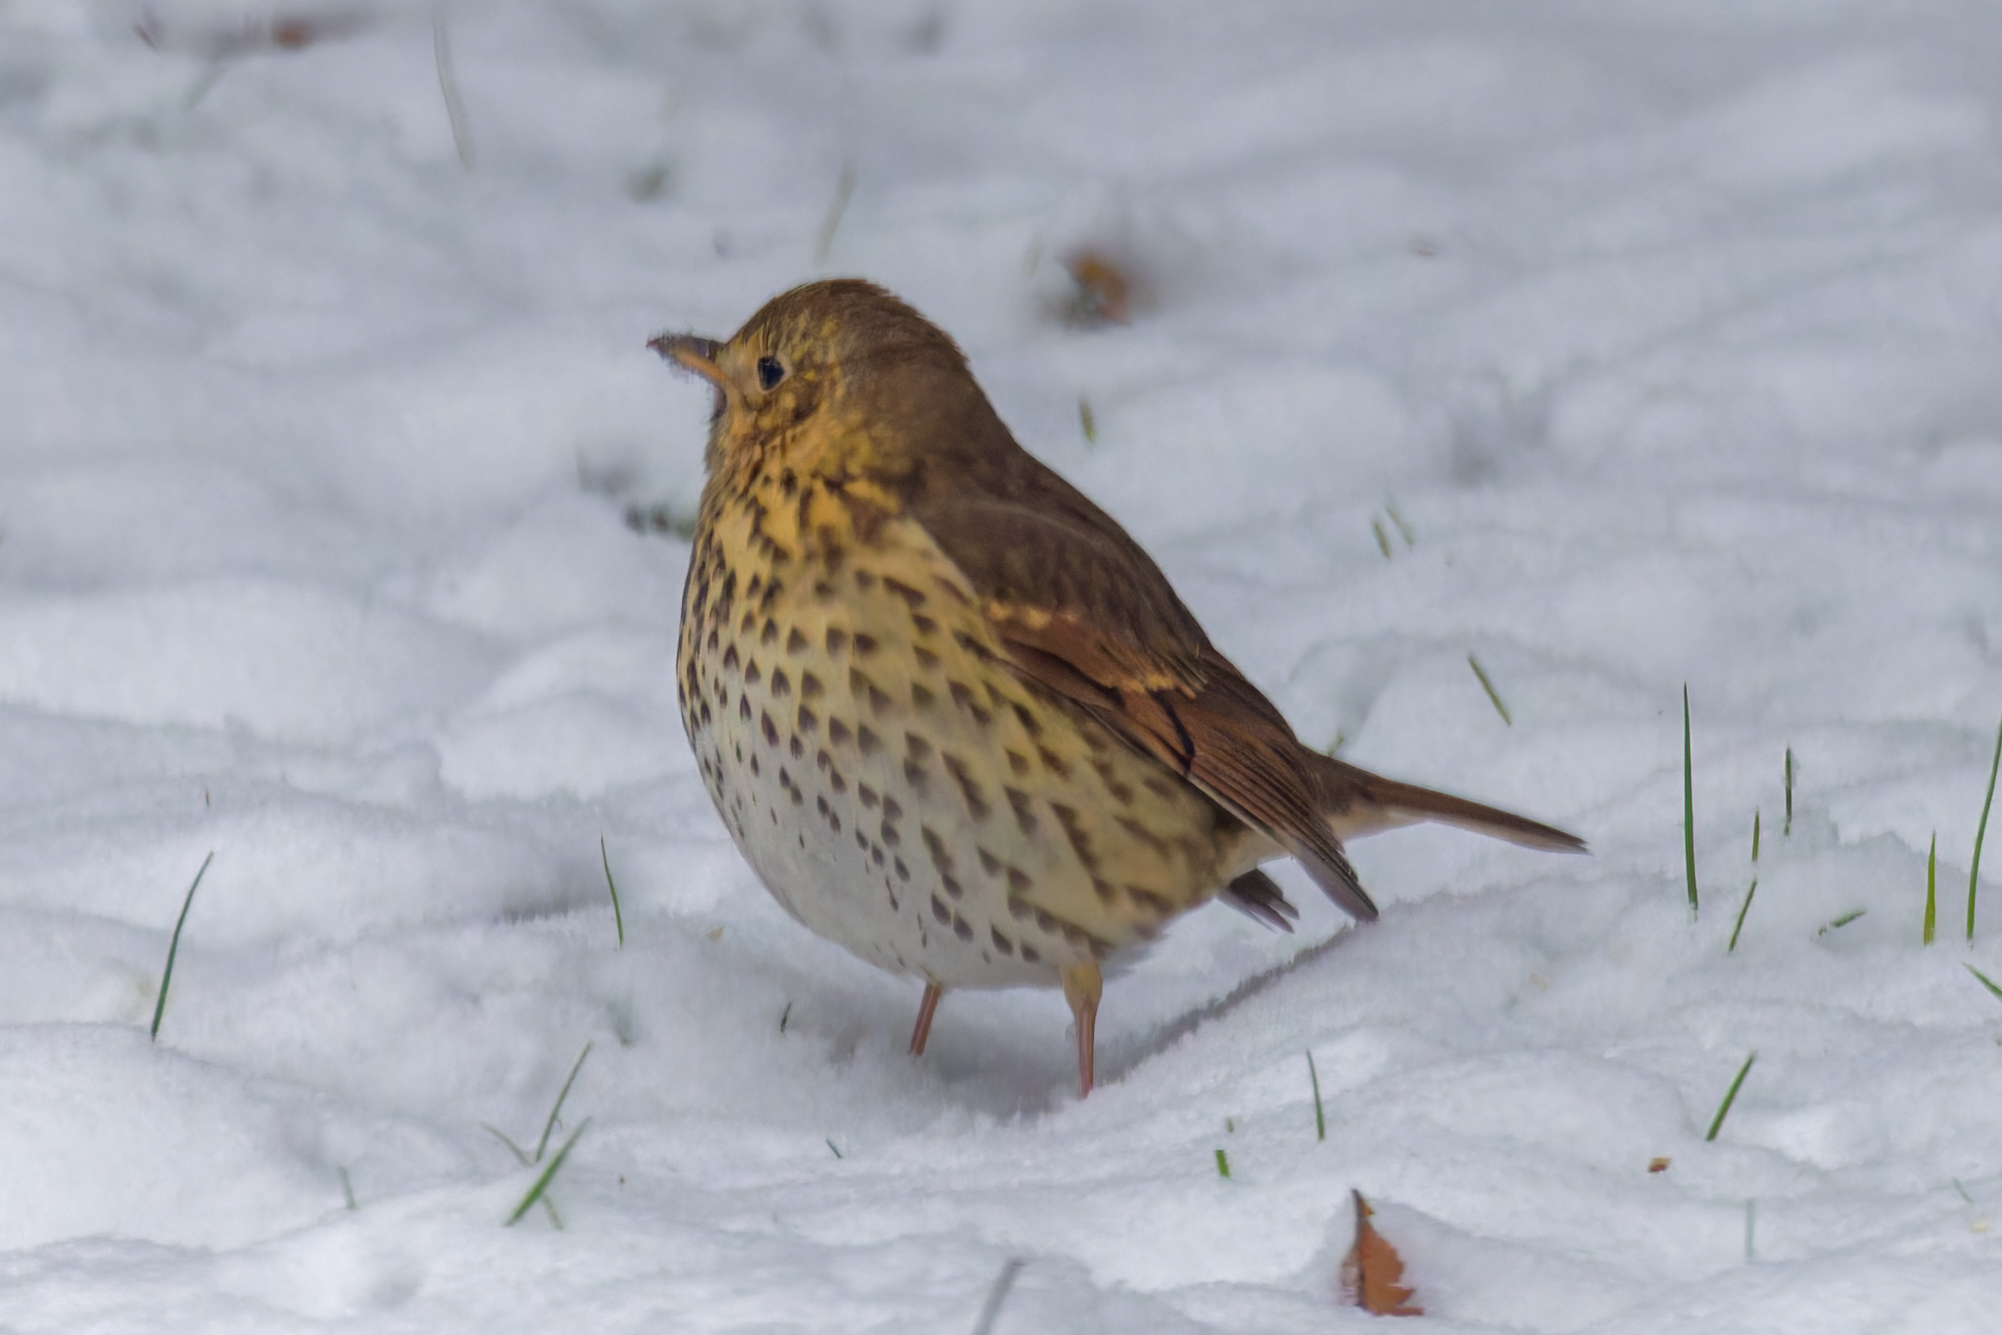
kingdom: Animalia
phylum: Chordata
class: Aves
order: Passeriformes
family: Turdidae
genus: Turdus
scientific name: Turdus philomelos
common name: Song thrush
